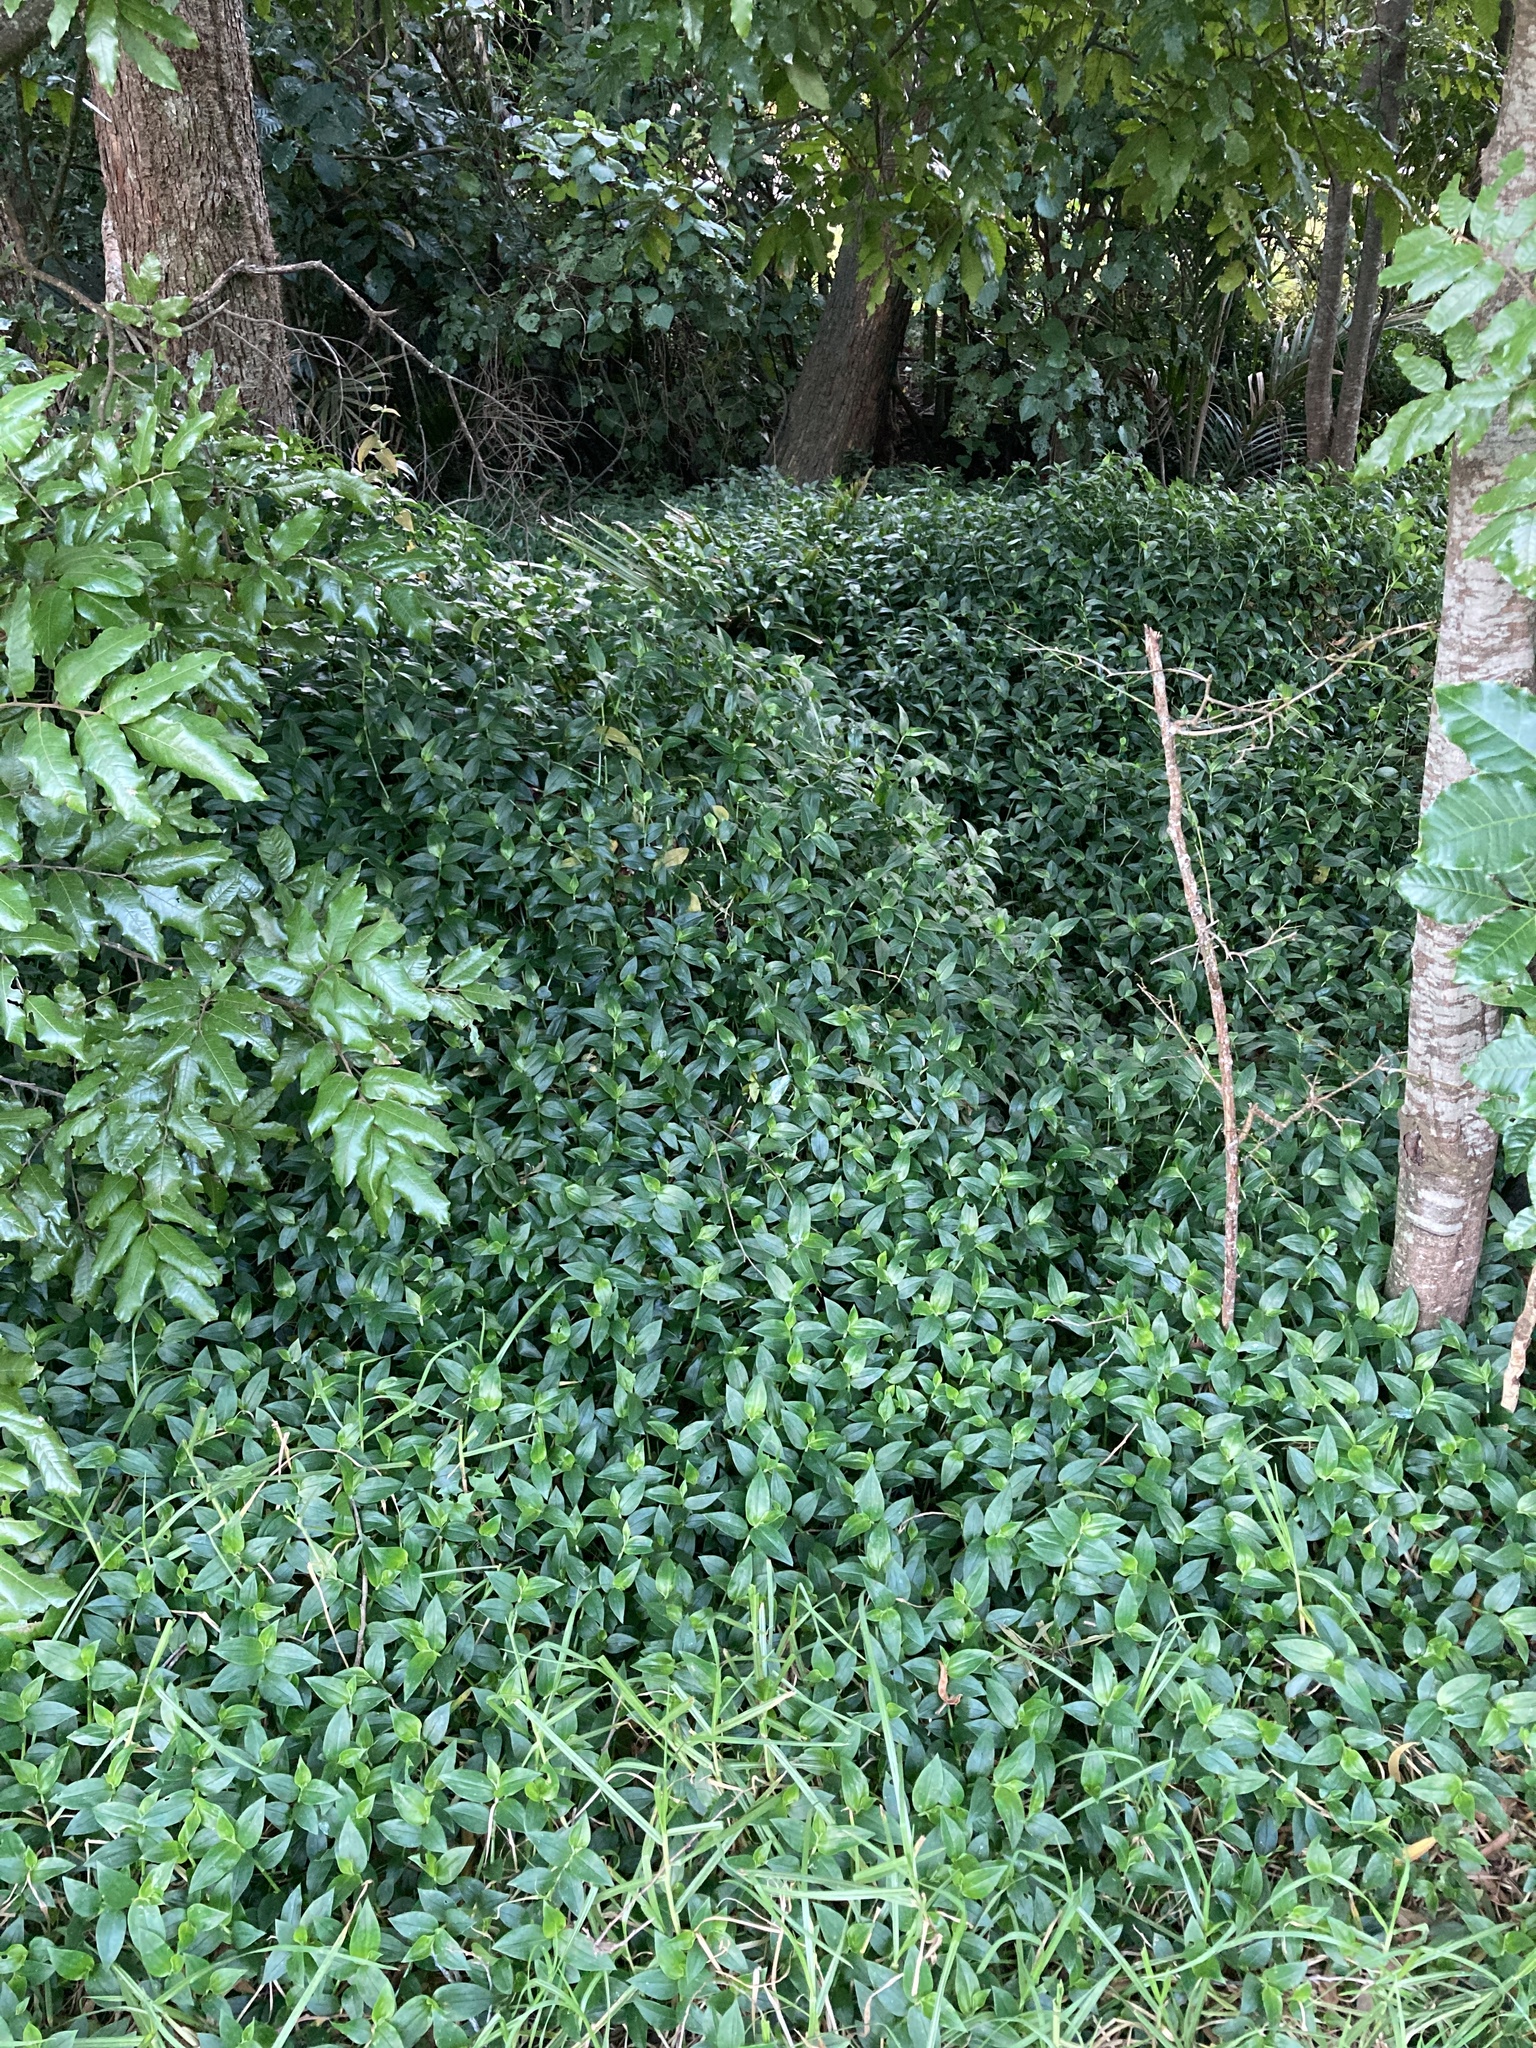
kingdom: Plantae
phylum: Tracheophyta
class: Liliopsida
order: Commelinales
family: Commelinaceae
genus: Tradescantia
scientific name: Tradescantia fluminensis
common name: Wandering-jew
